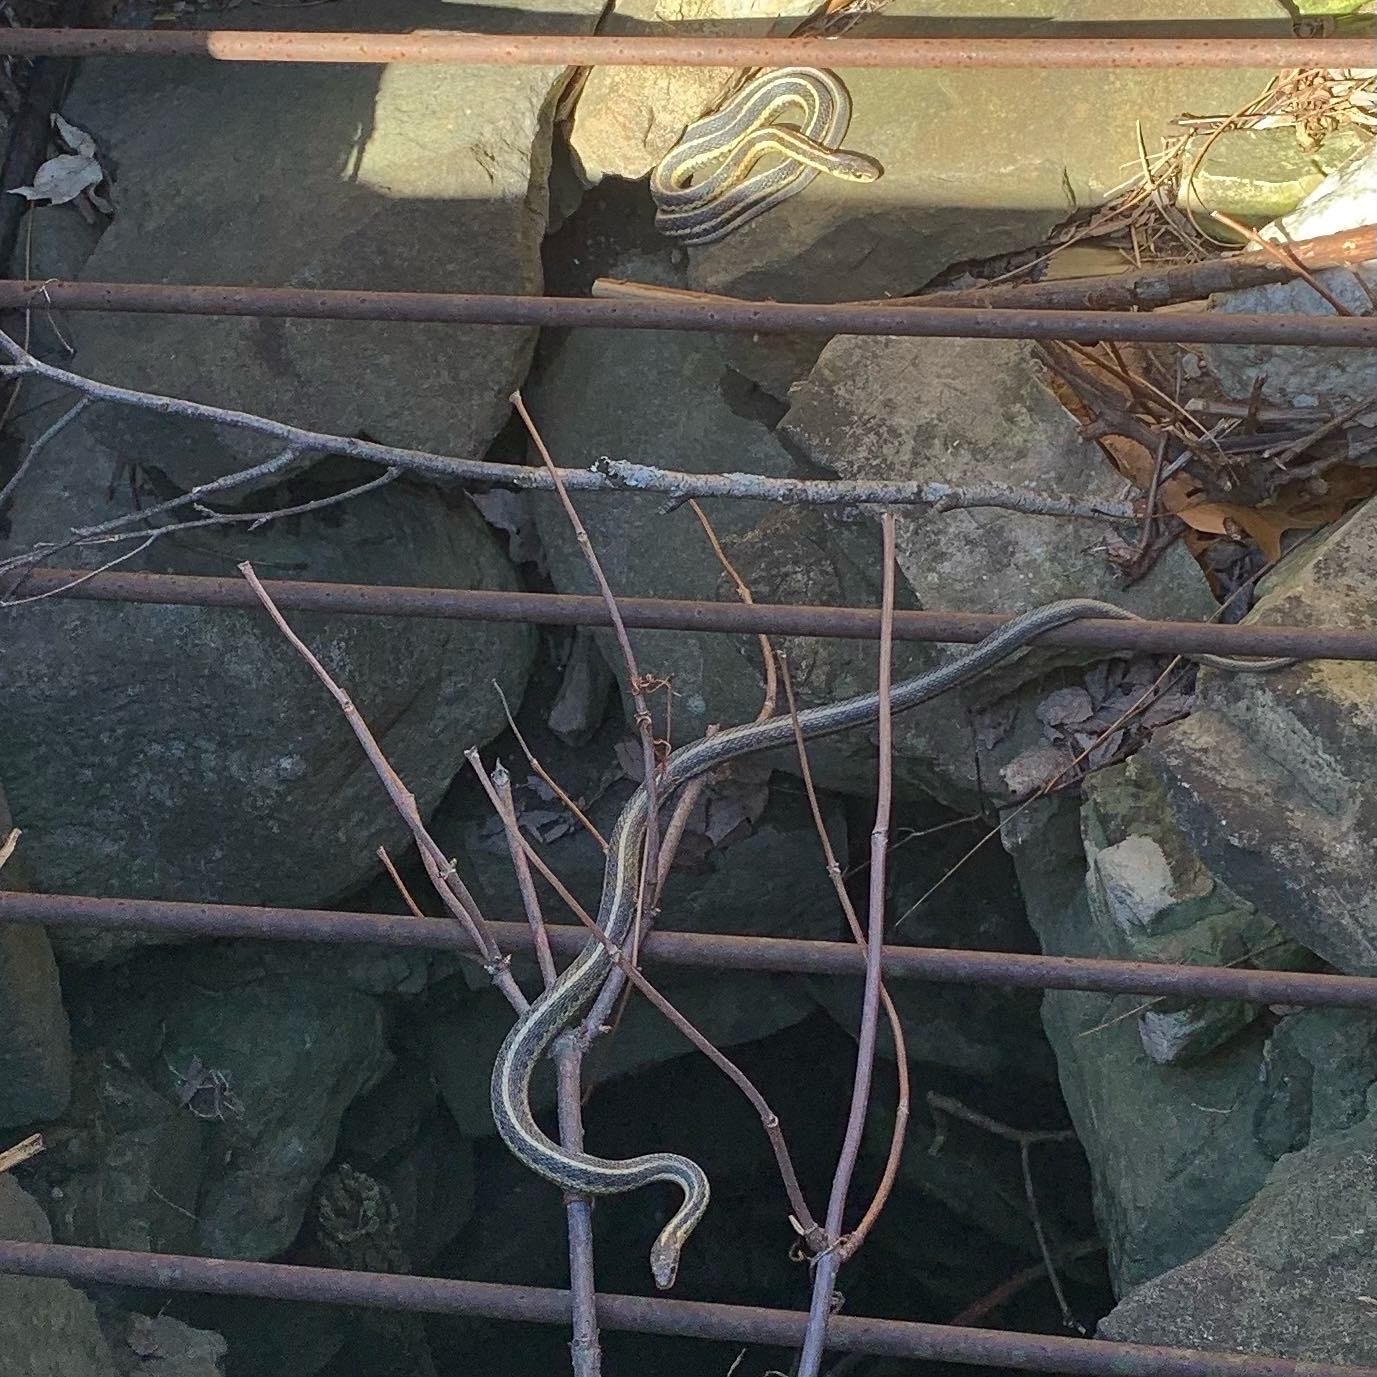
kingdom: Animalia
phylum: Chordata
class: Squamata
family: Colubridae
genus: Thamnophis
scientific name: Thamnophis sirtalis
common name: Common garter snake
